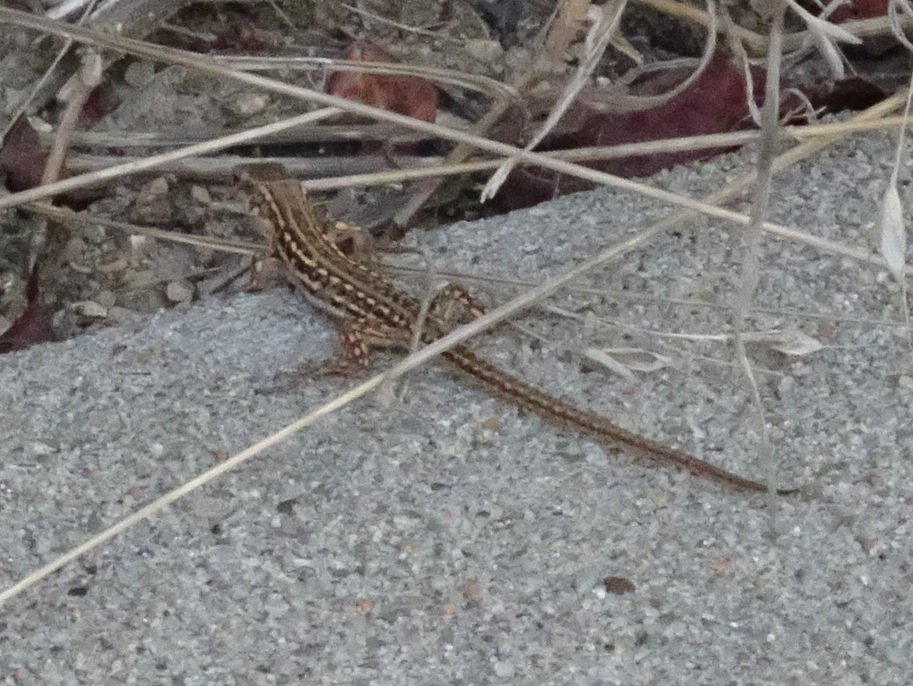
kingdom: Animalia
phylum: Chordata
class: Squamata
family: Lacertidae
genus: Podarcis
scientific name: Podarcis siculus
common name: Italian wall lizard
